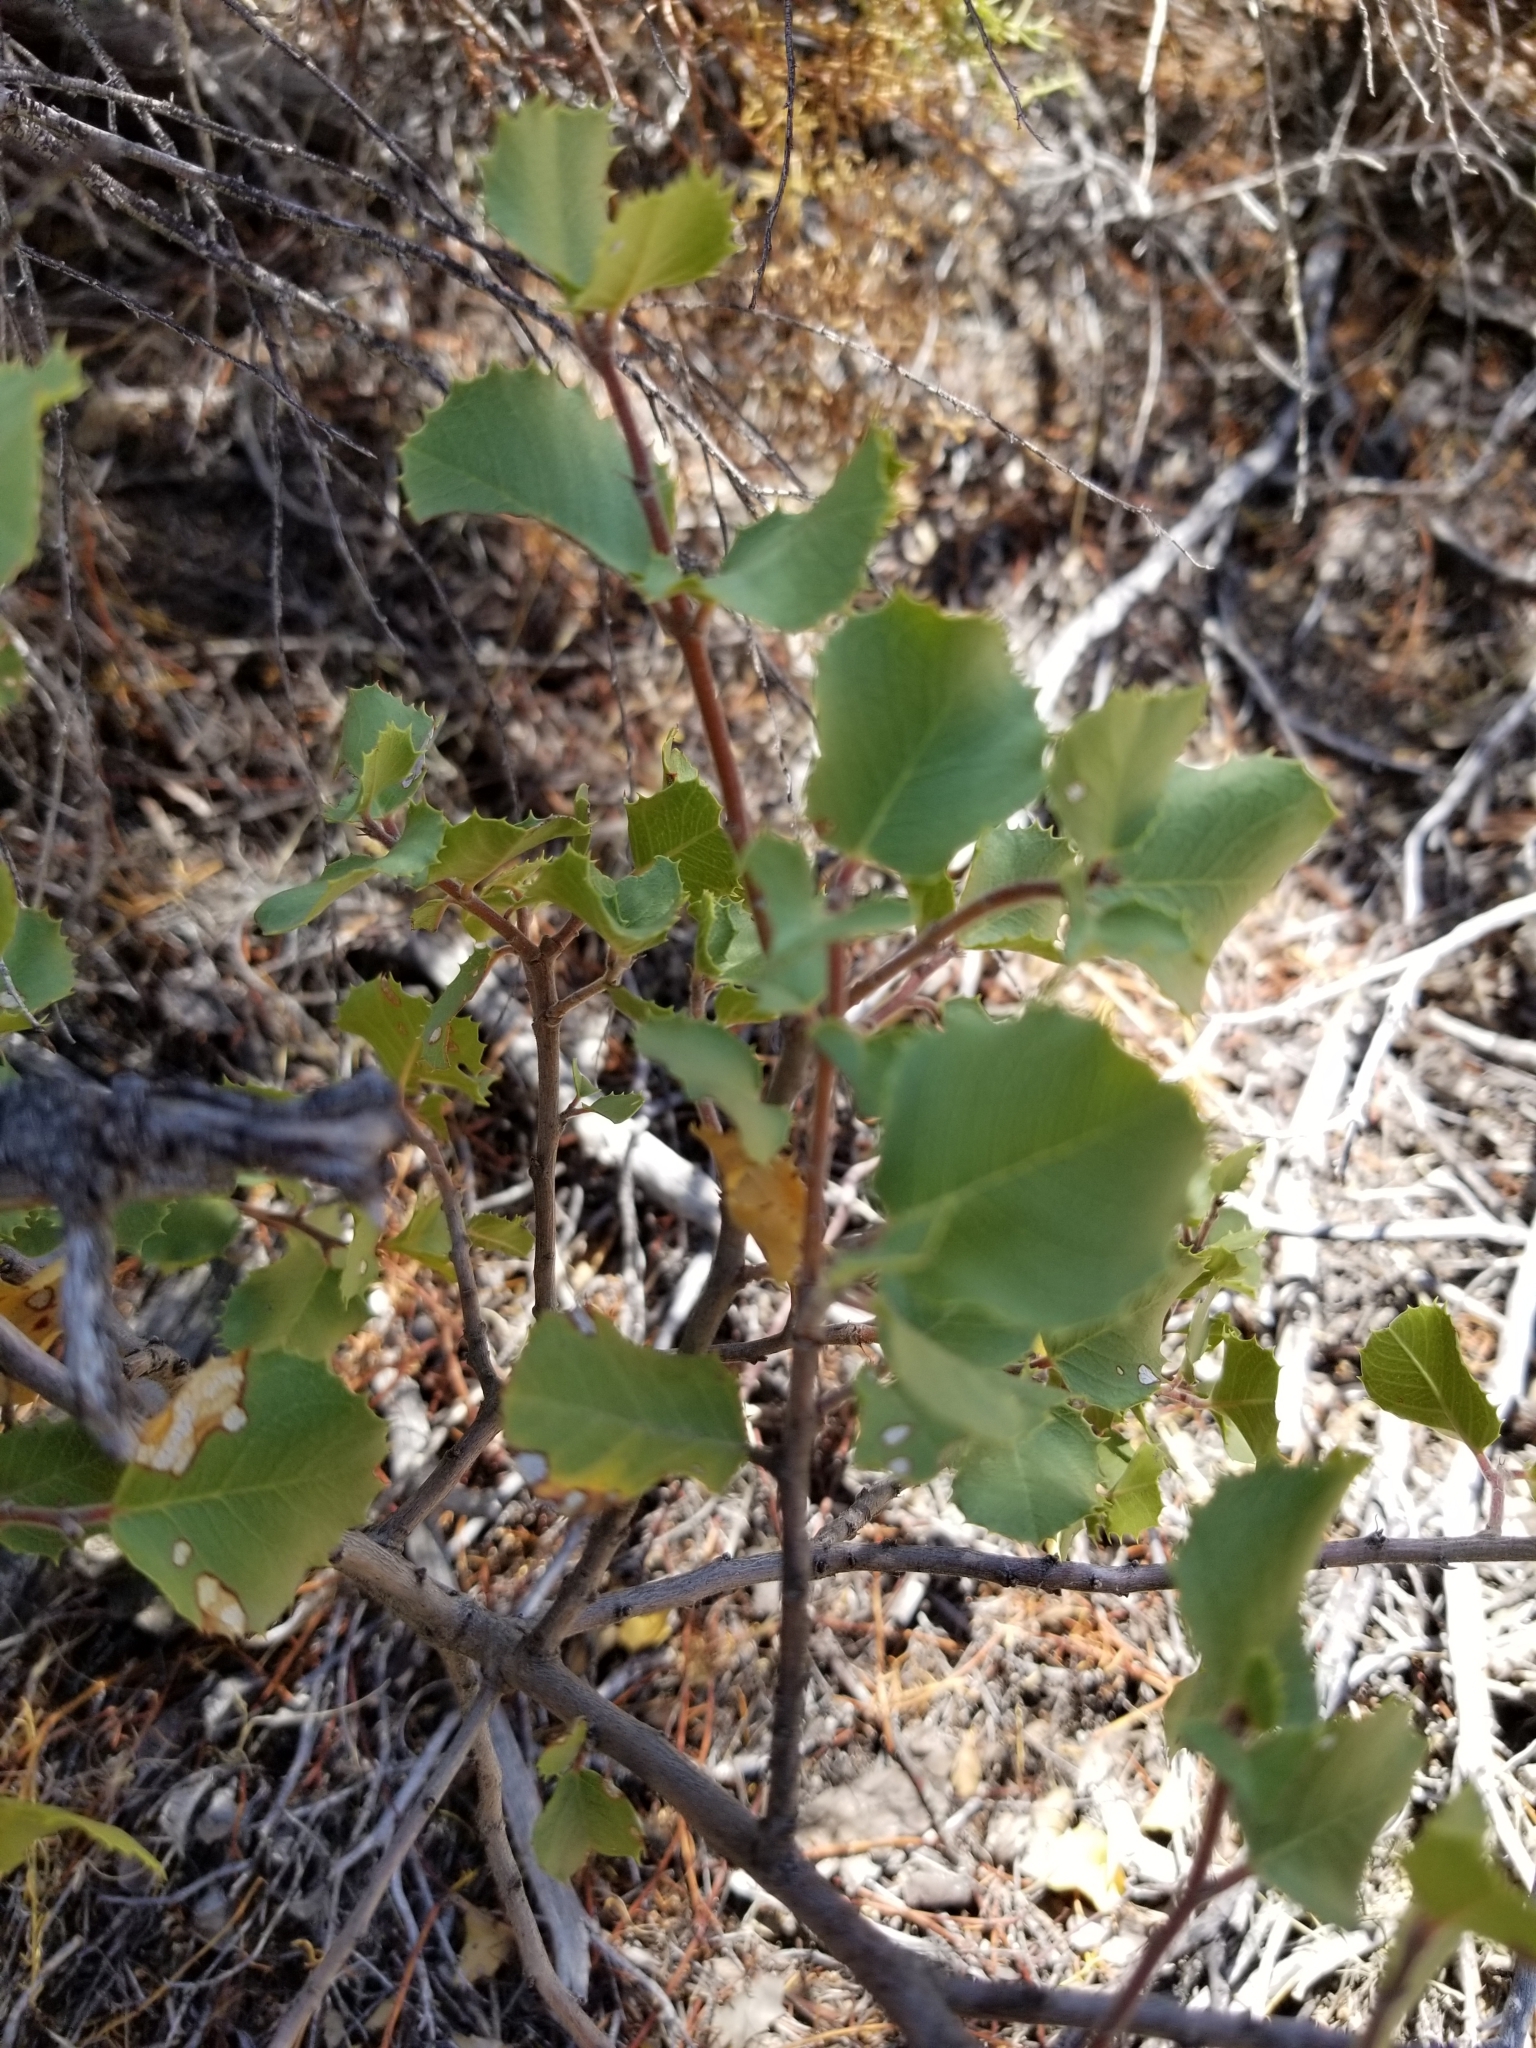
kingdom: Plantae
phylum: Tracheophyta
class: Magnoliopsida
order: Rosales
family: Rosaceae
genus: Prunus
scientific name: Prunus ilicifolia
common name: Hollyleaf cherry
